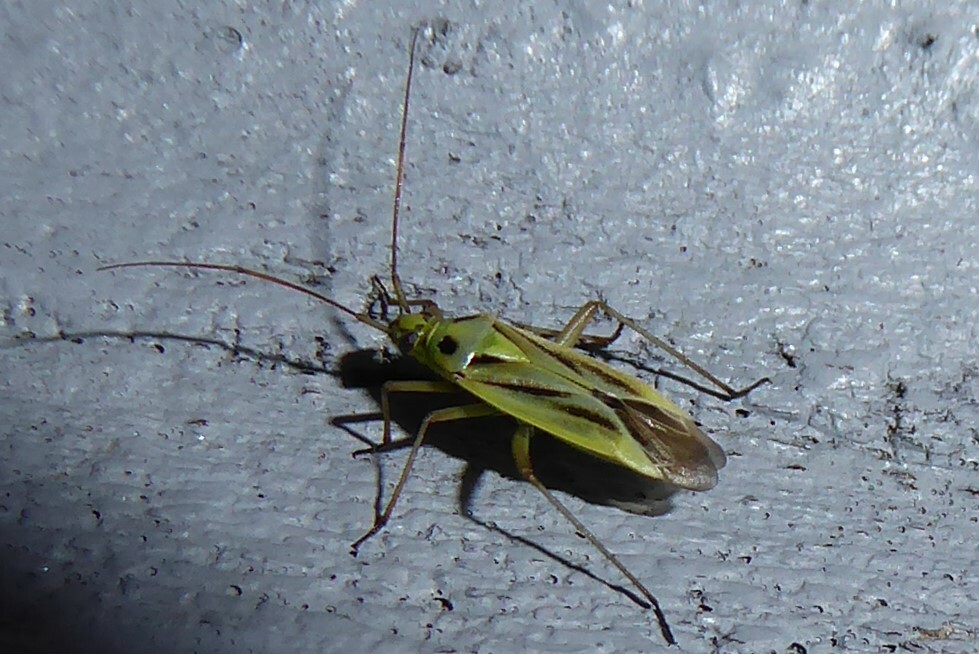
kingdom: Animalia
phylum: Arthropoda
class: Insecta
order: Hemiptera
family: Miridae
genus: Stenotus
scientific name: Stenotus binotatus
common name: Plant bug
